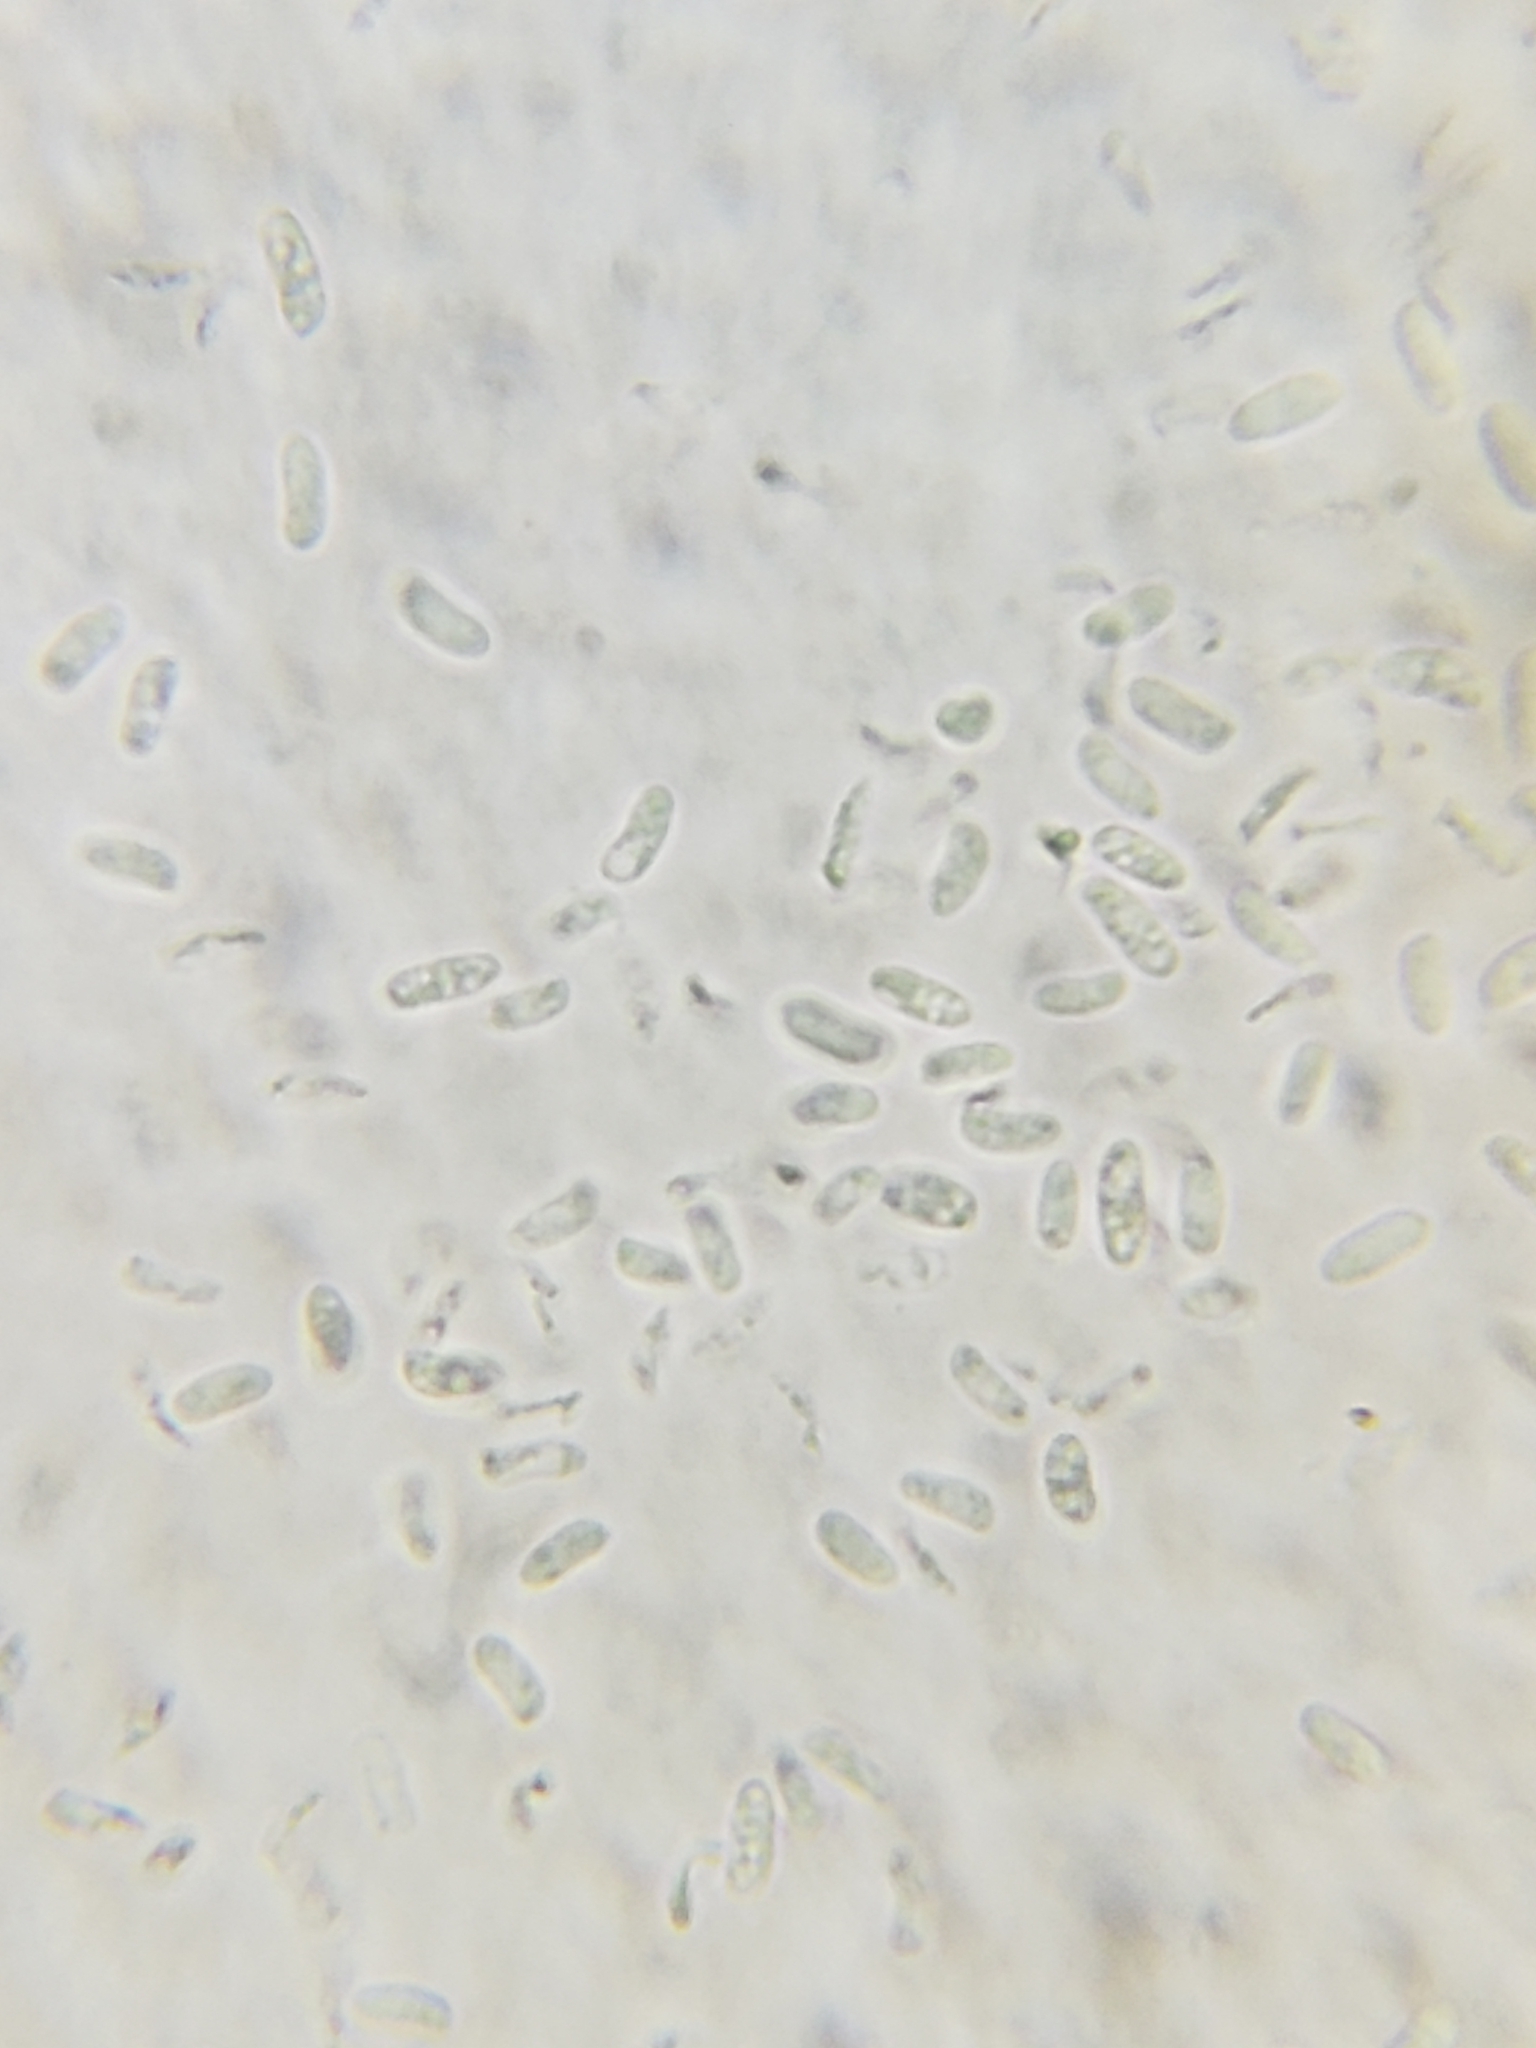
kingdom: Fungi
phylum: Basidiomycota
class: Agaricomycetes
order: Polyporales
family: Polyporaceae
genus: Trametes
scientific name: Trametes versicolor
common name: Turkeytail
